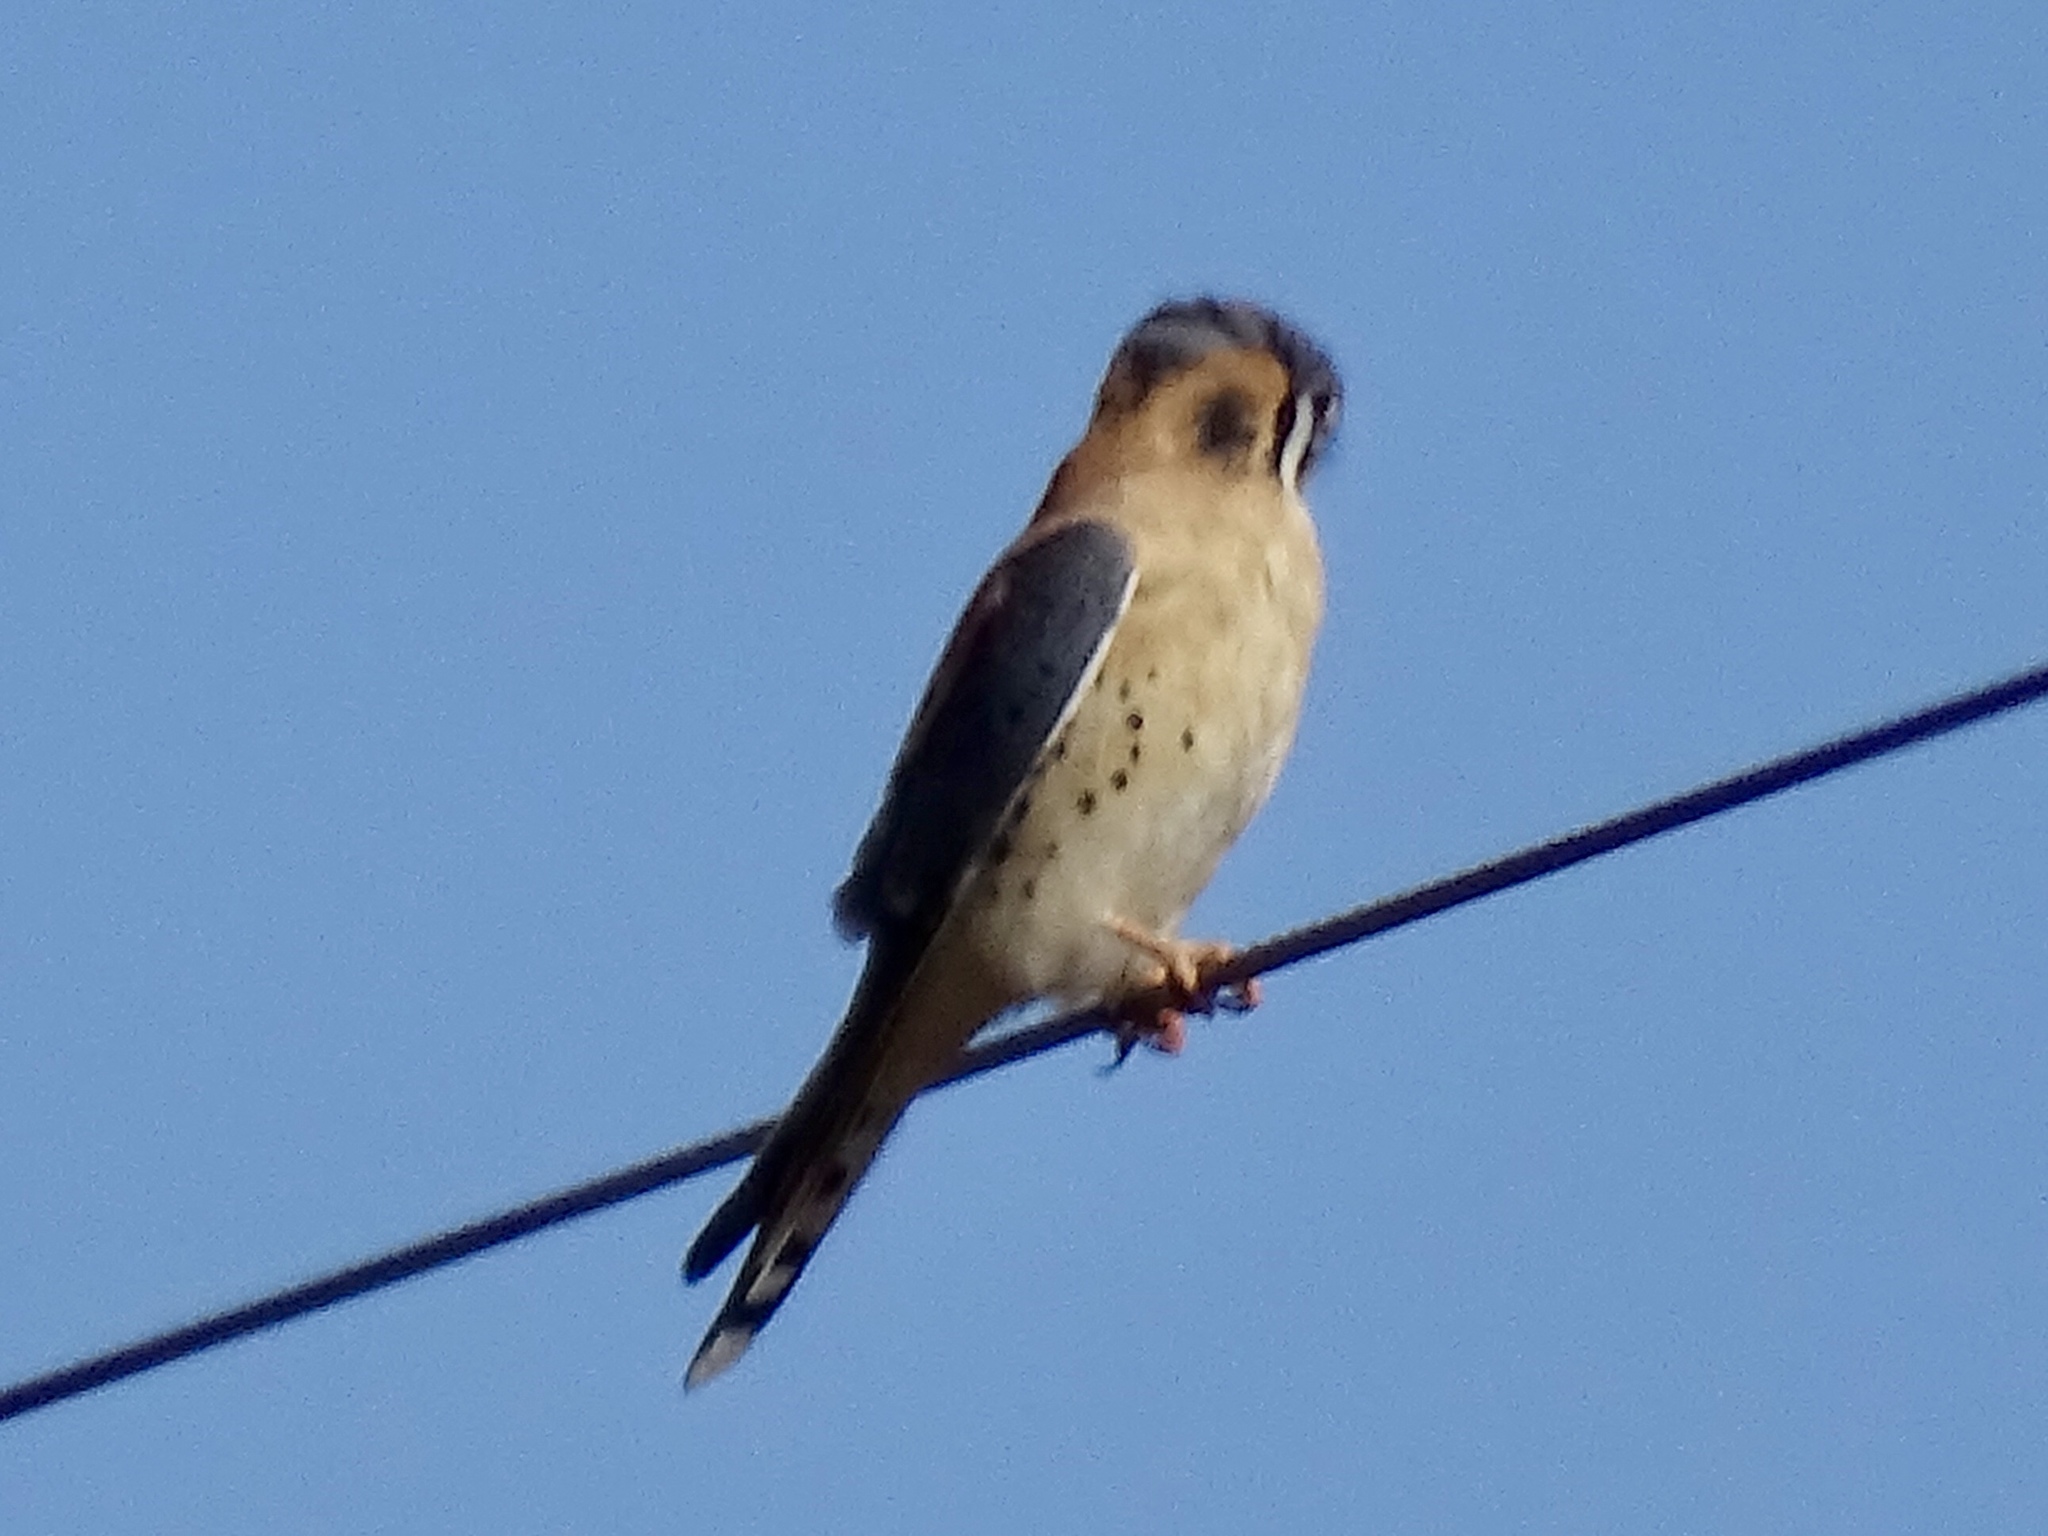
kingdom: Animalia
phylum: Chordata
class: Aves
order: Falconiformes
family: Falconidae
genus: Falco
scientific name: Falco sparverius
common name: American kestrel
